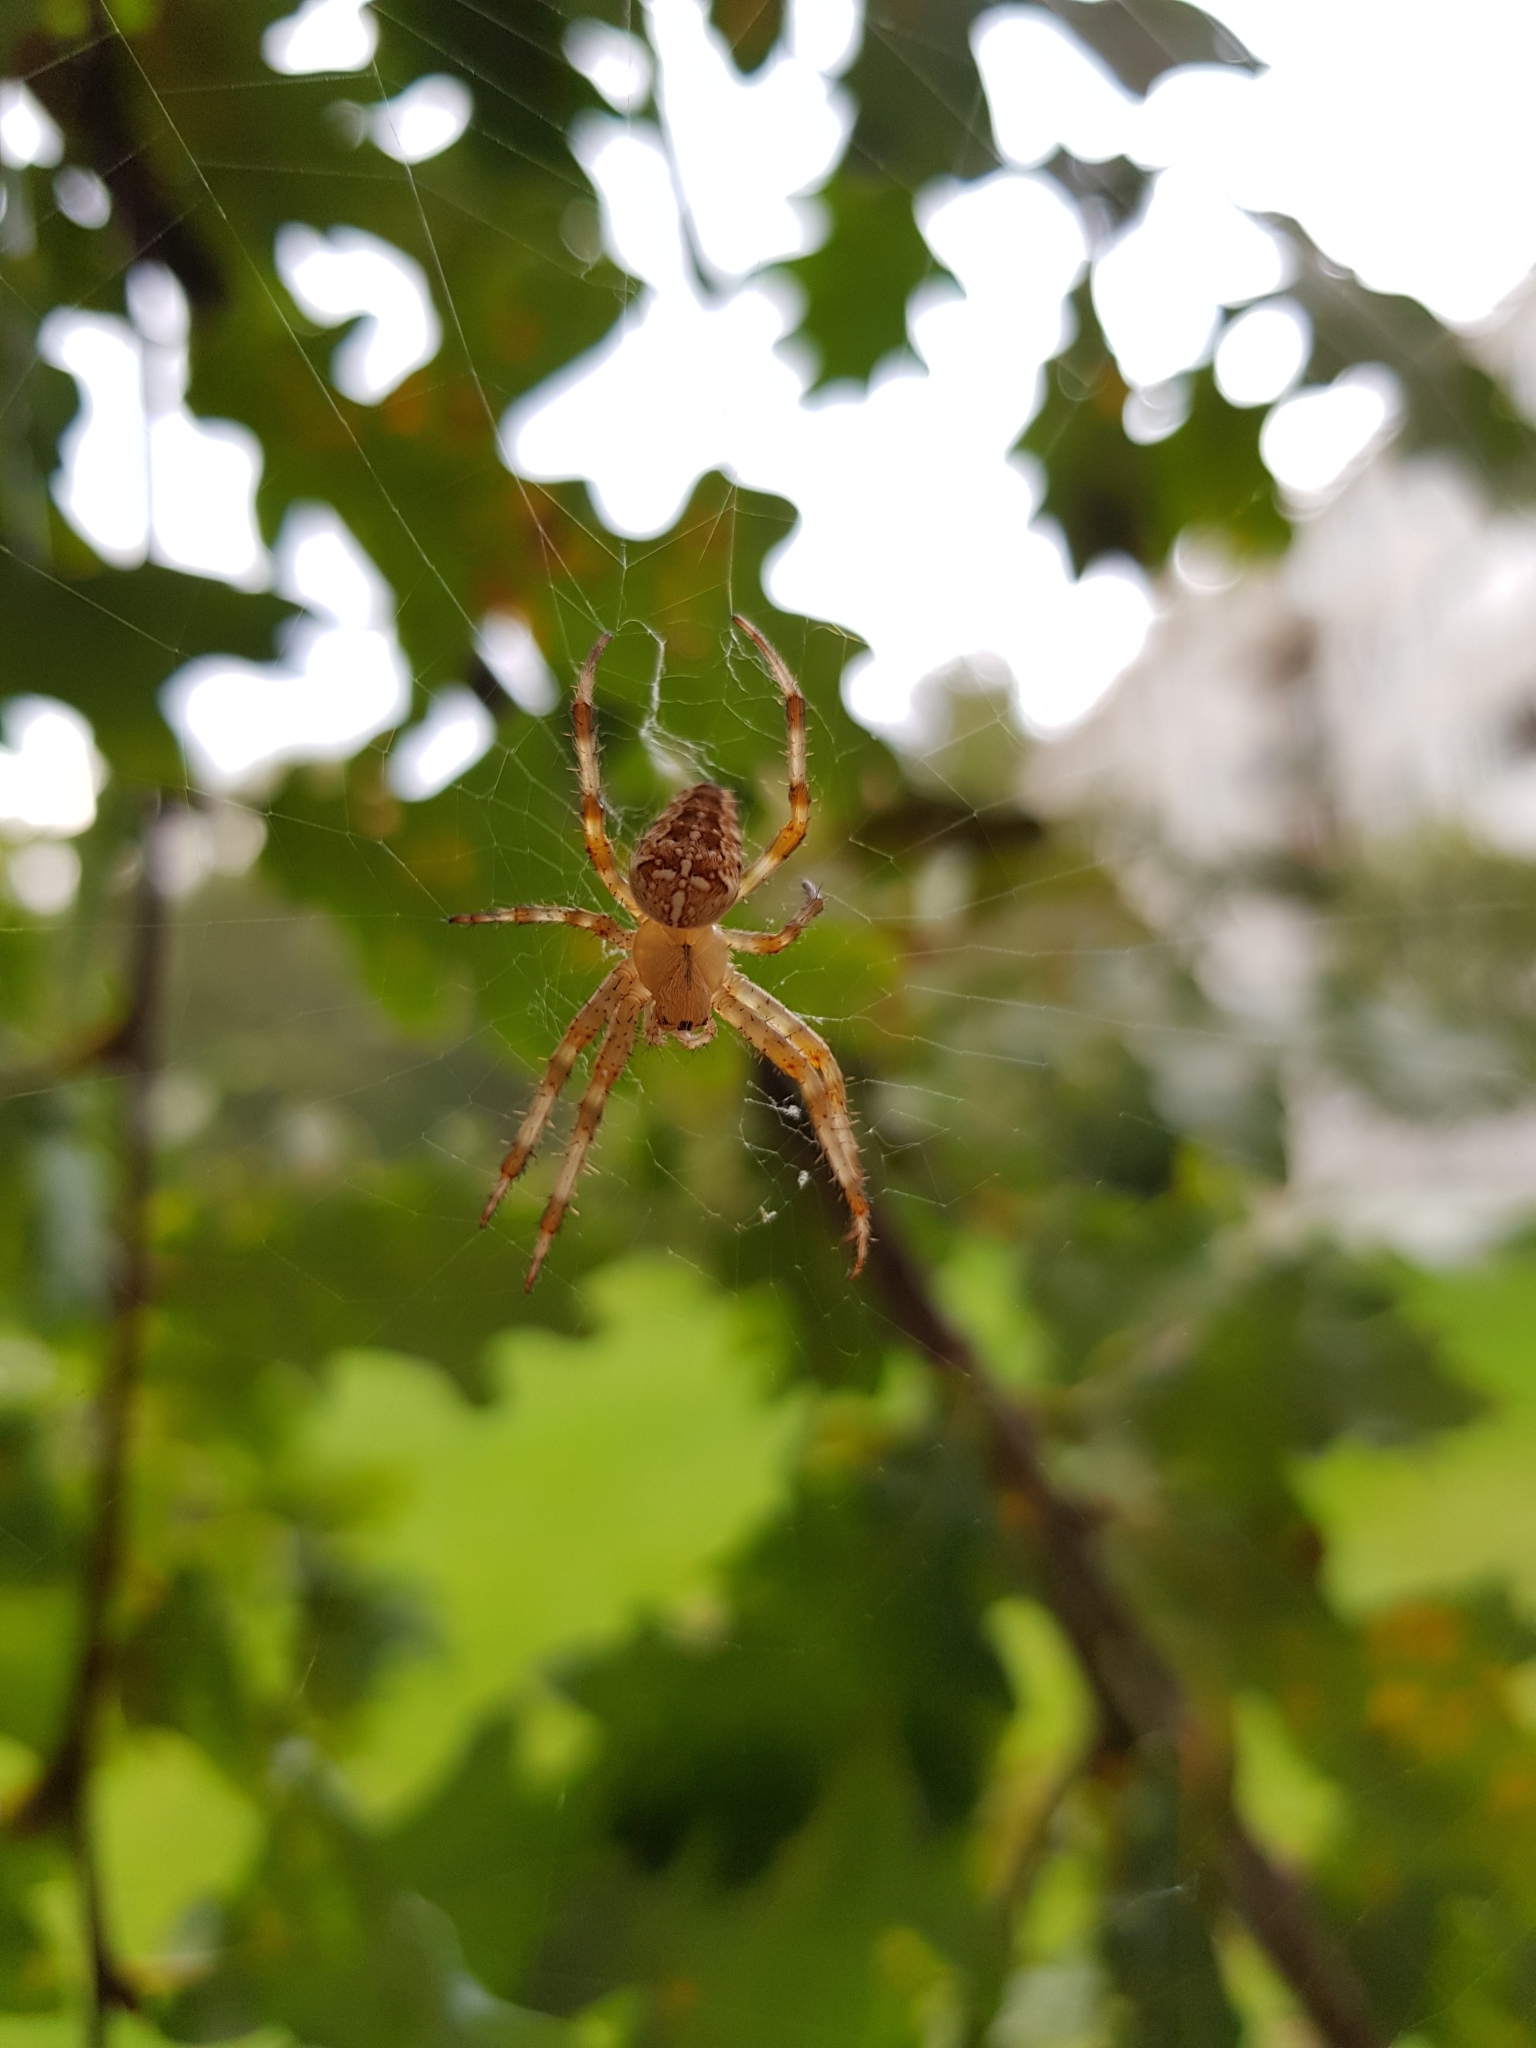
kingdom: Animalia
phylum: Arthropoda
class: Arachnida
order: Araneae
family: Araneidae
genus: Araneus
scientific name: Araneus diadematus
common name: Cross orbweaver
